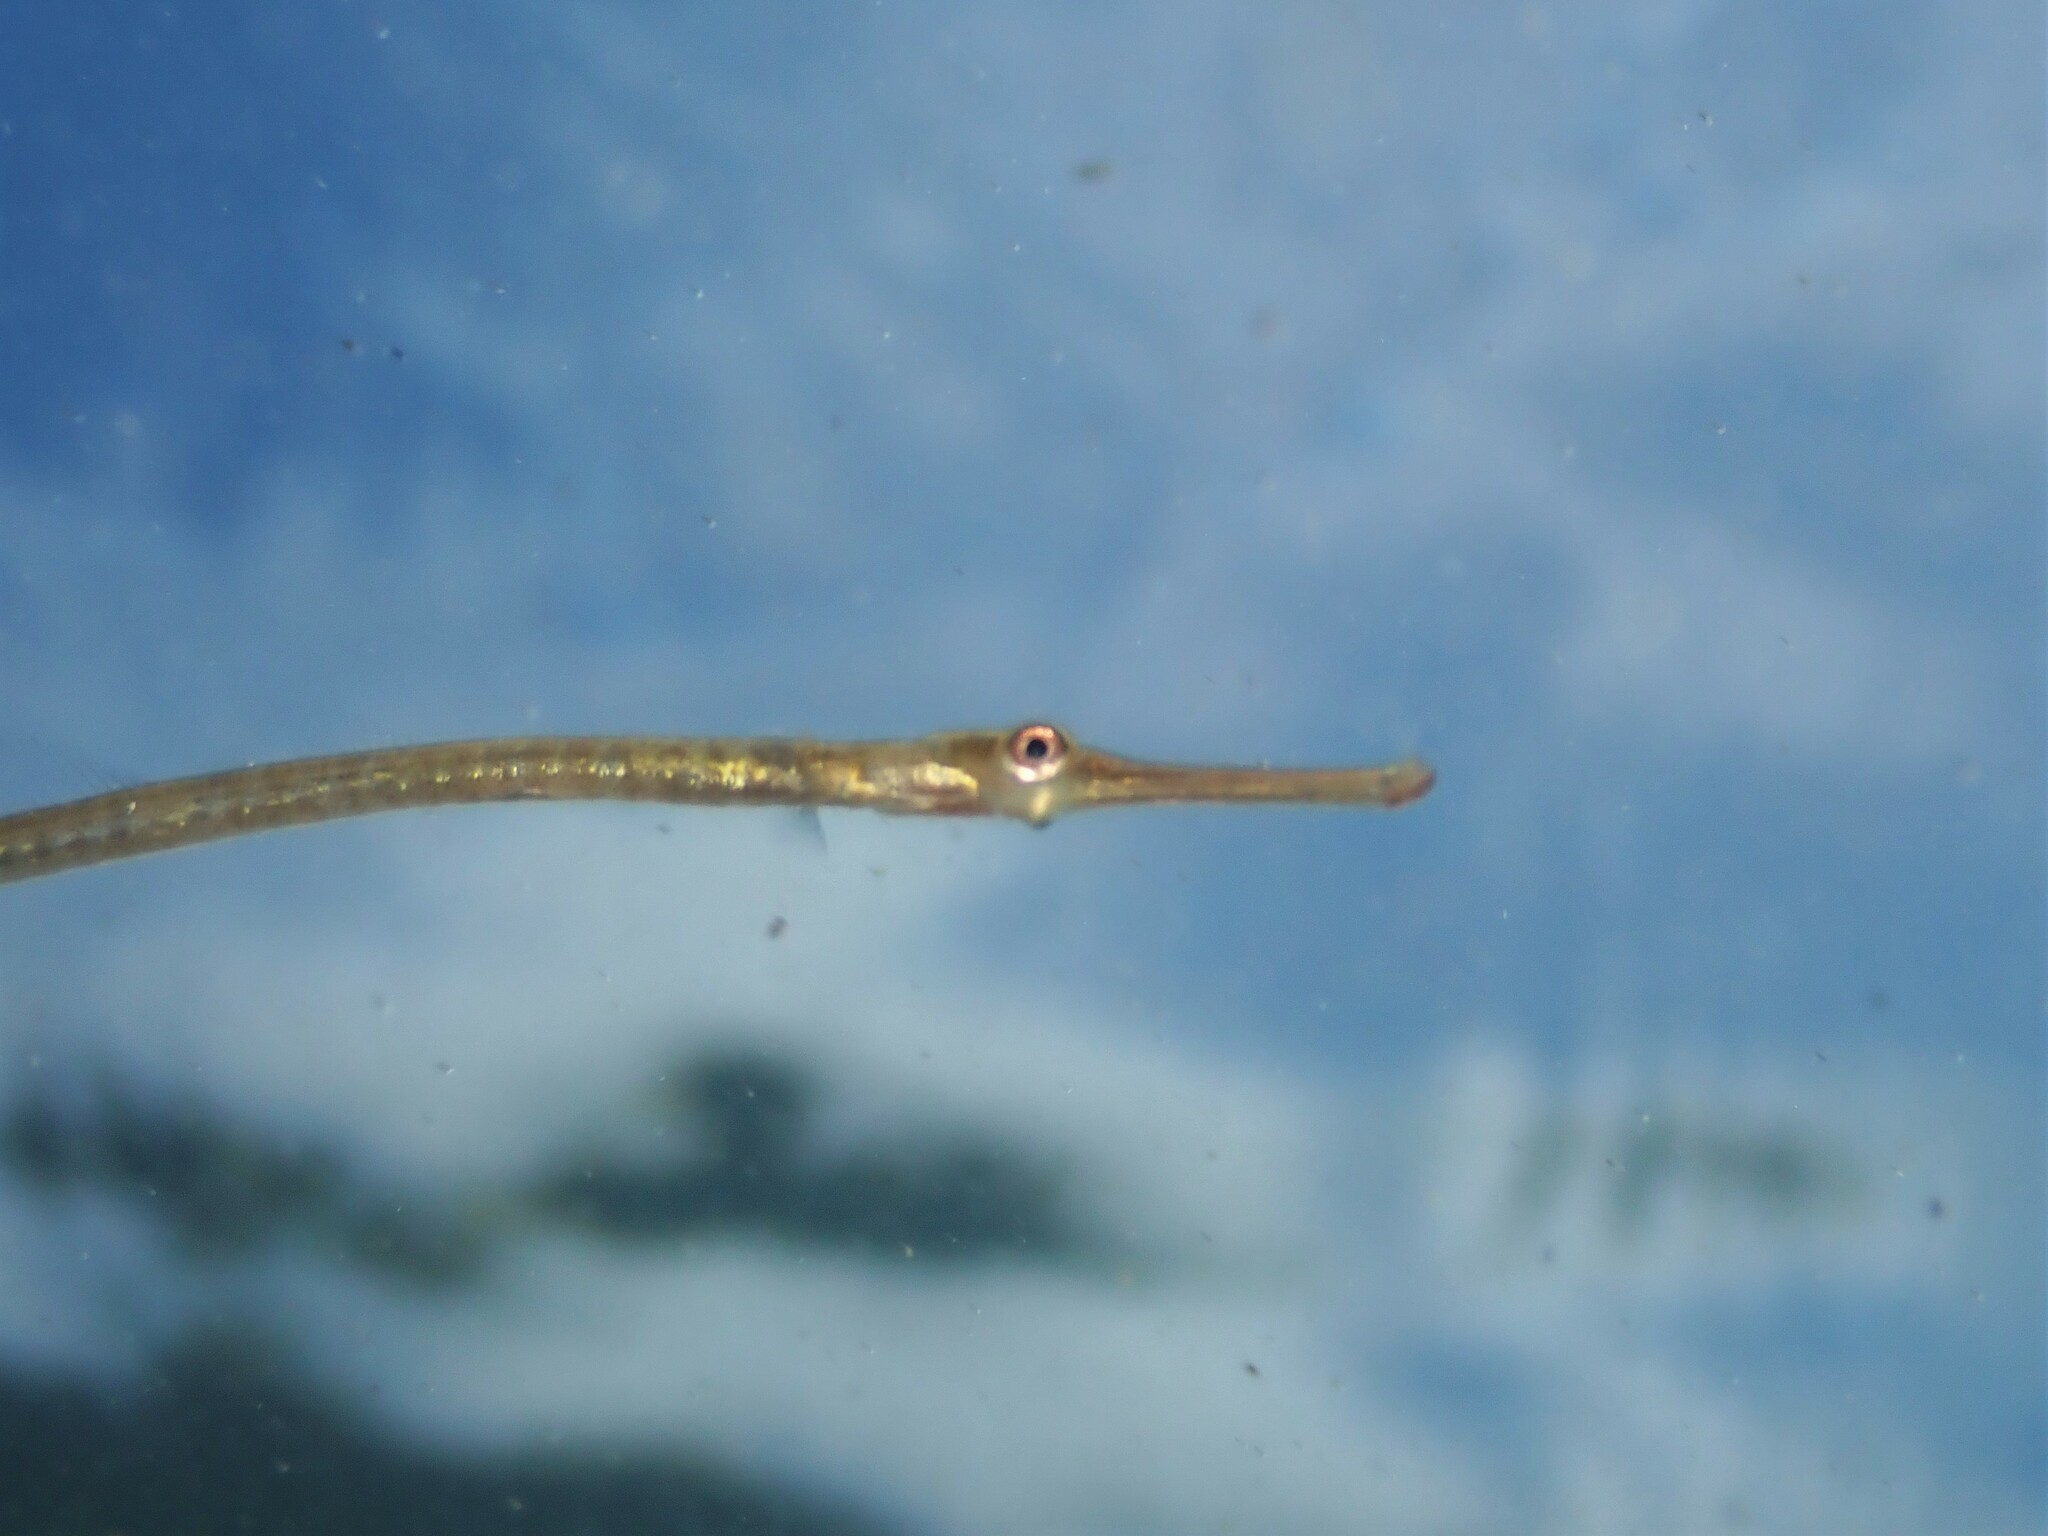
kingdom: Animalia
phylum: Chordata
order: Syngnathiformes
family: Syngnathidae
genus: Stigmatopora
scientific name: Stigmatopora macropterygia
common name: Long-snouted pipefish
